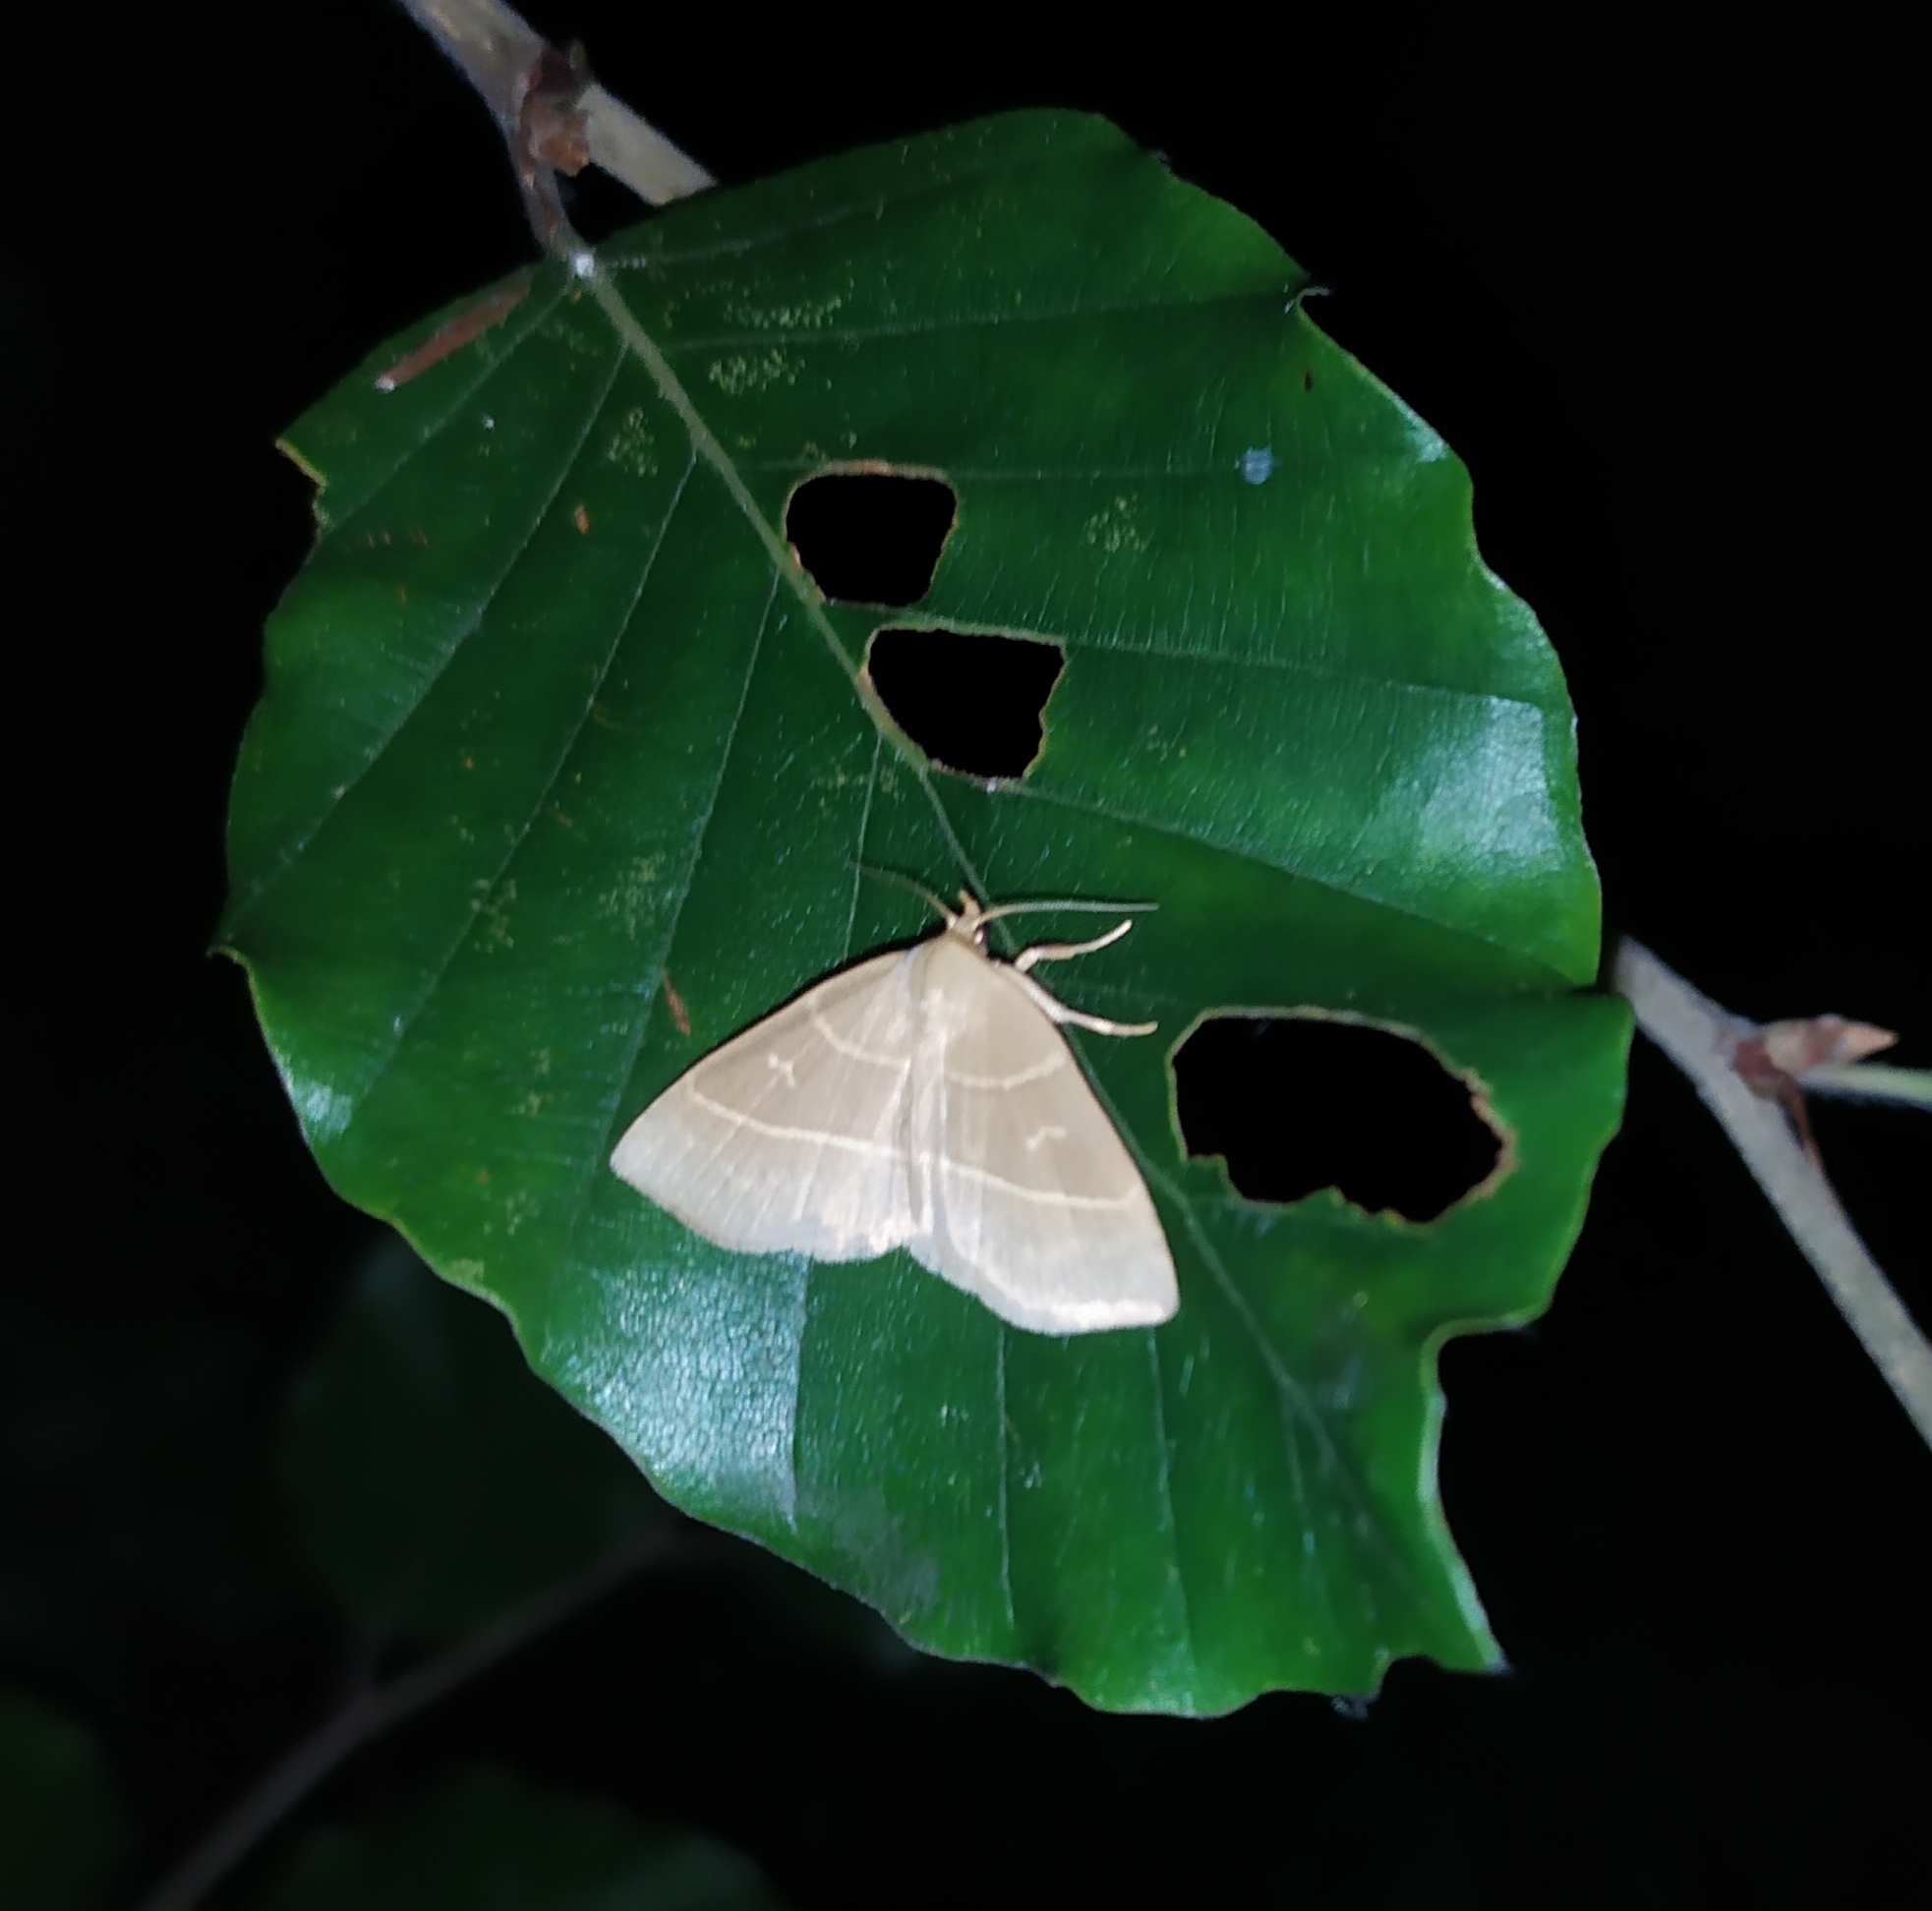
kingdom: Animalia
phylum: Arthropoda
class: Insecta
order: Lepidoptera
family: Erebidae
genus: Trisateles
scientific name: Trisateles emortualis
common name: Olive crescent
